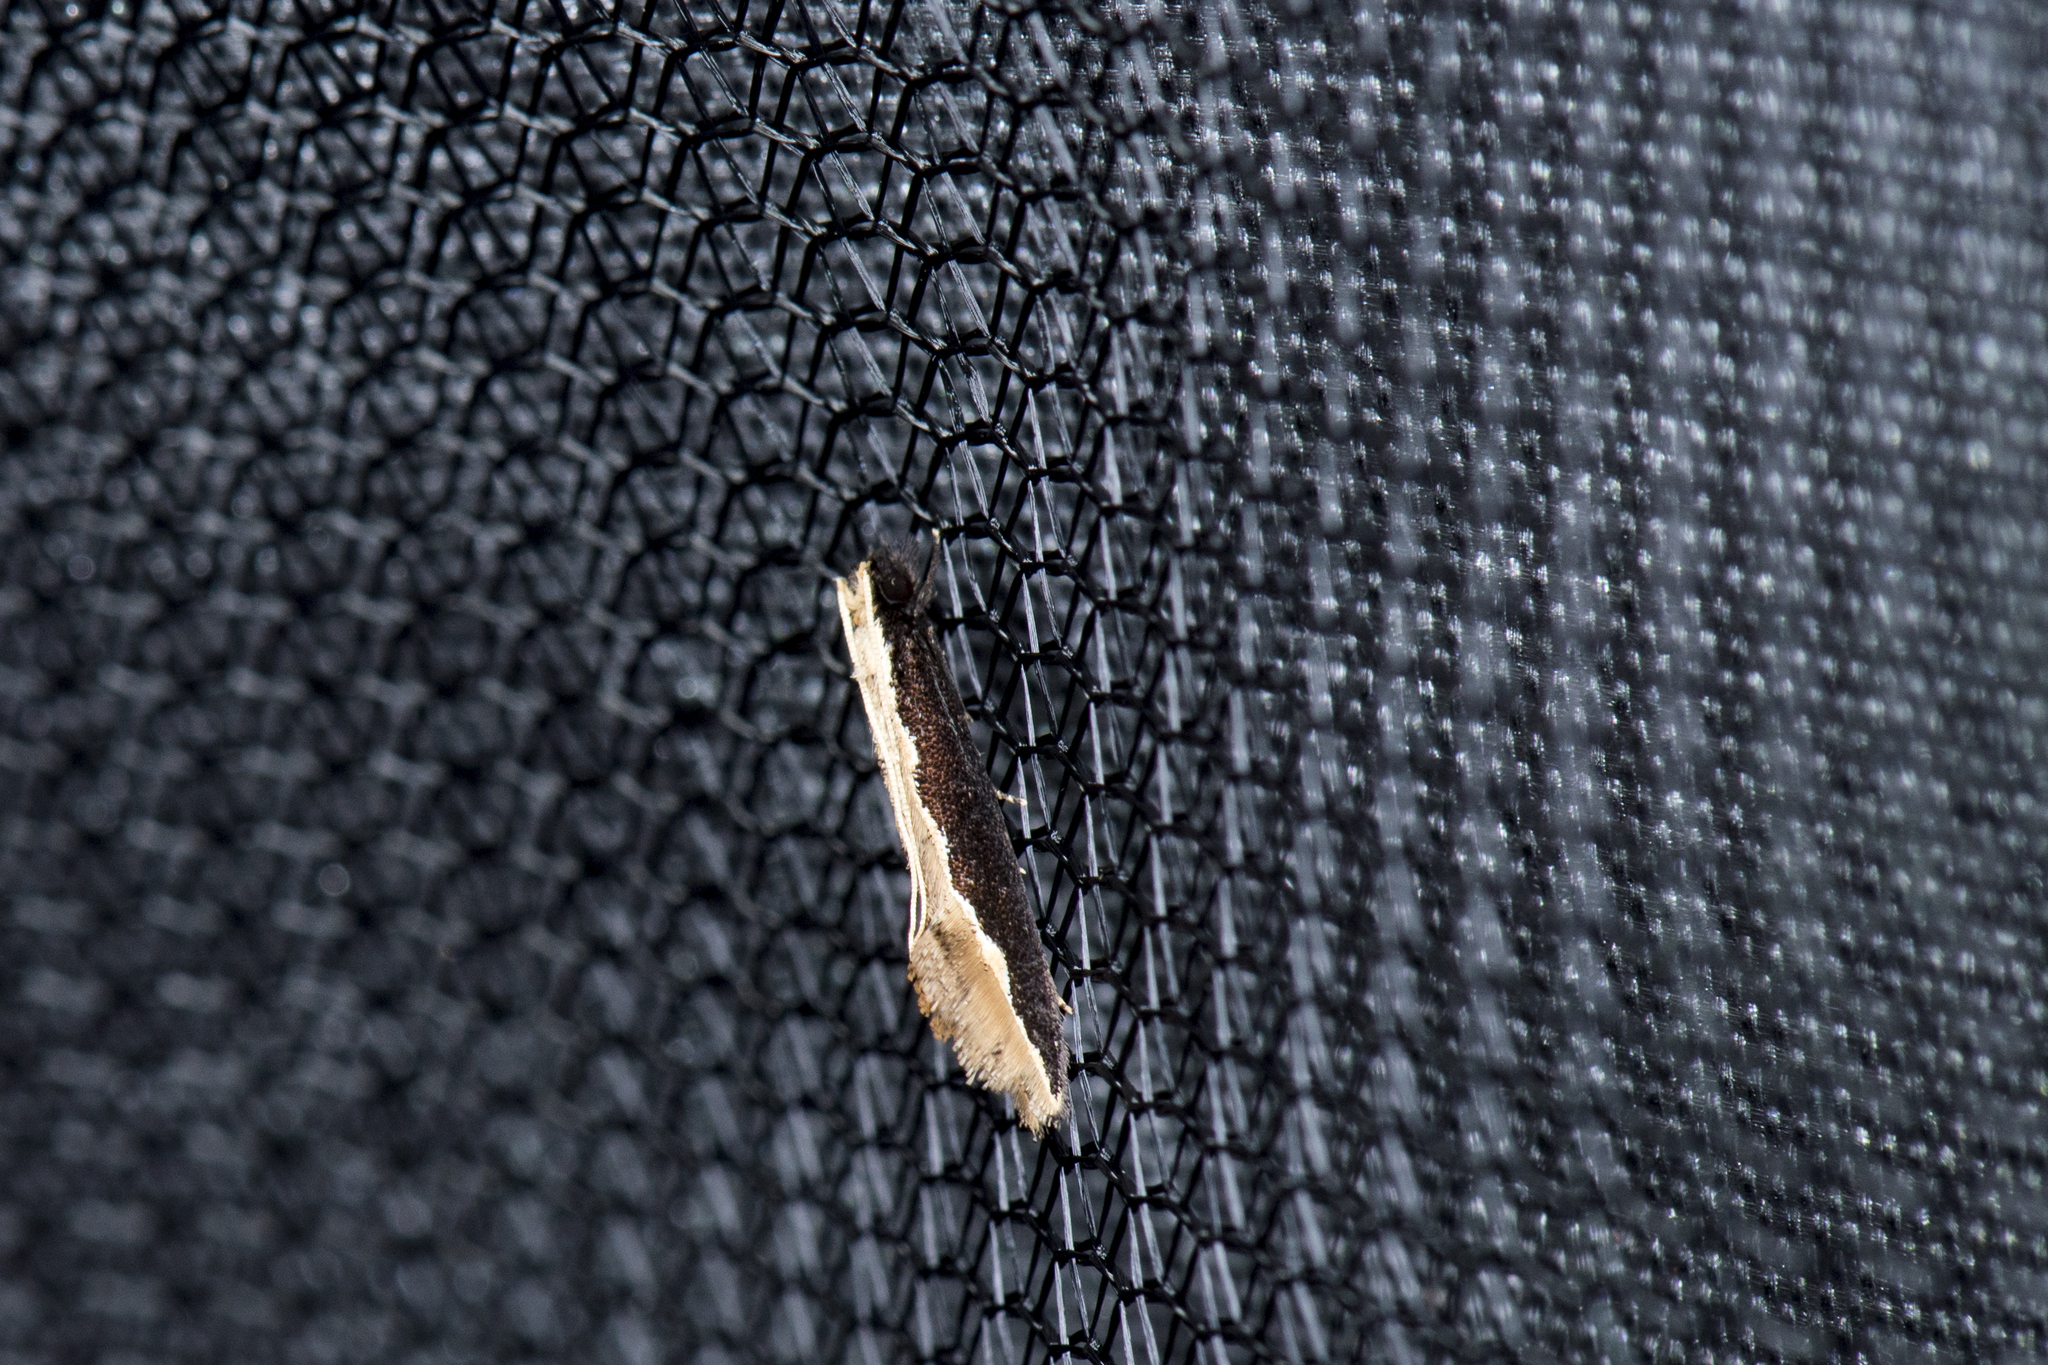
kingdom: Animalia
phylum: Arthropoda
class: Insecta
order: Lepidoptera
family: Tineidae
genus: Pyloetis
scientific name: Pyloetis mimosae
